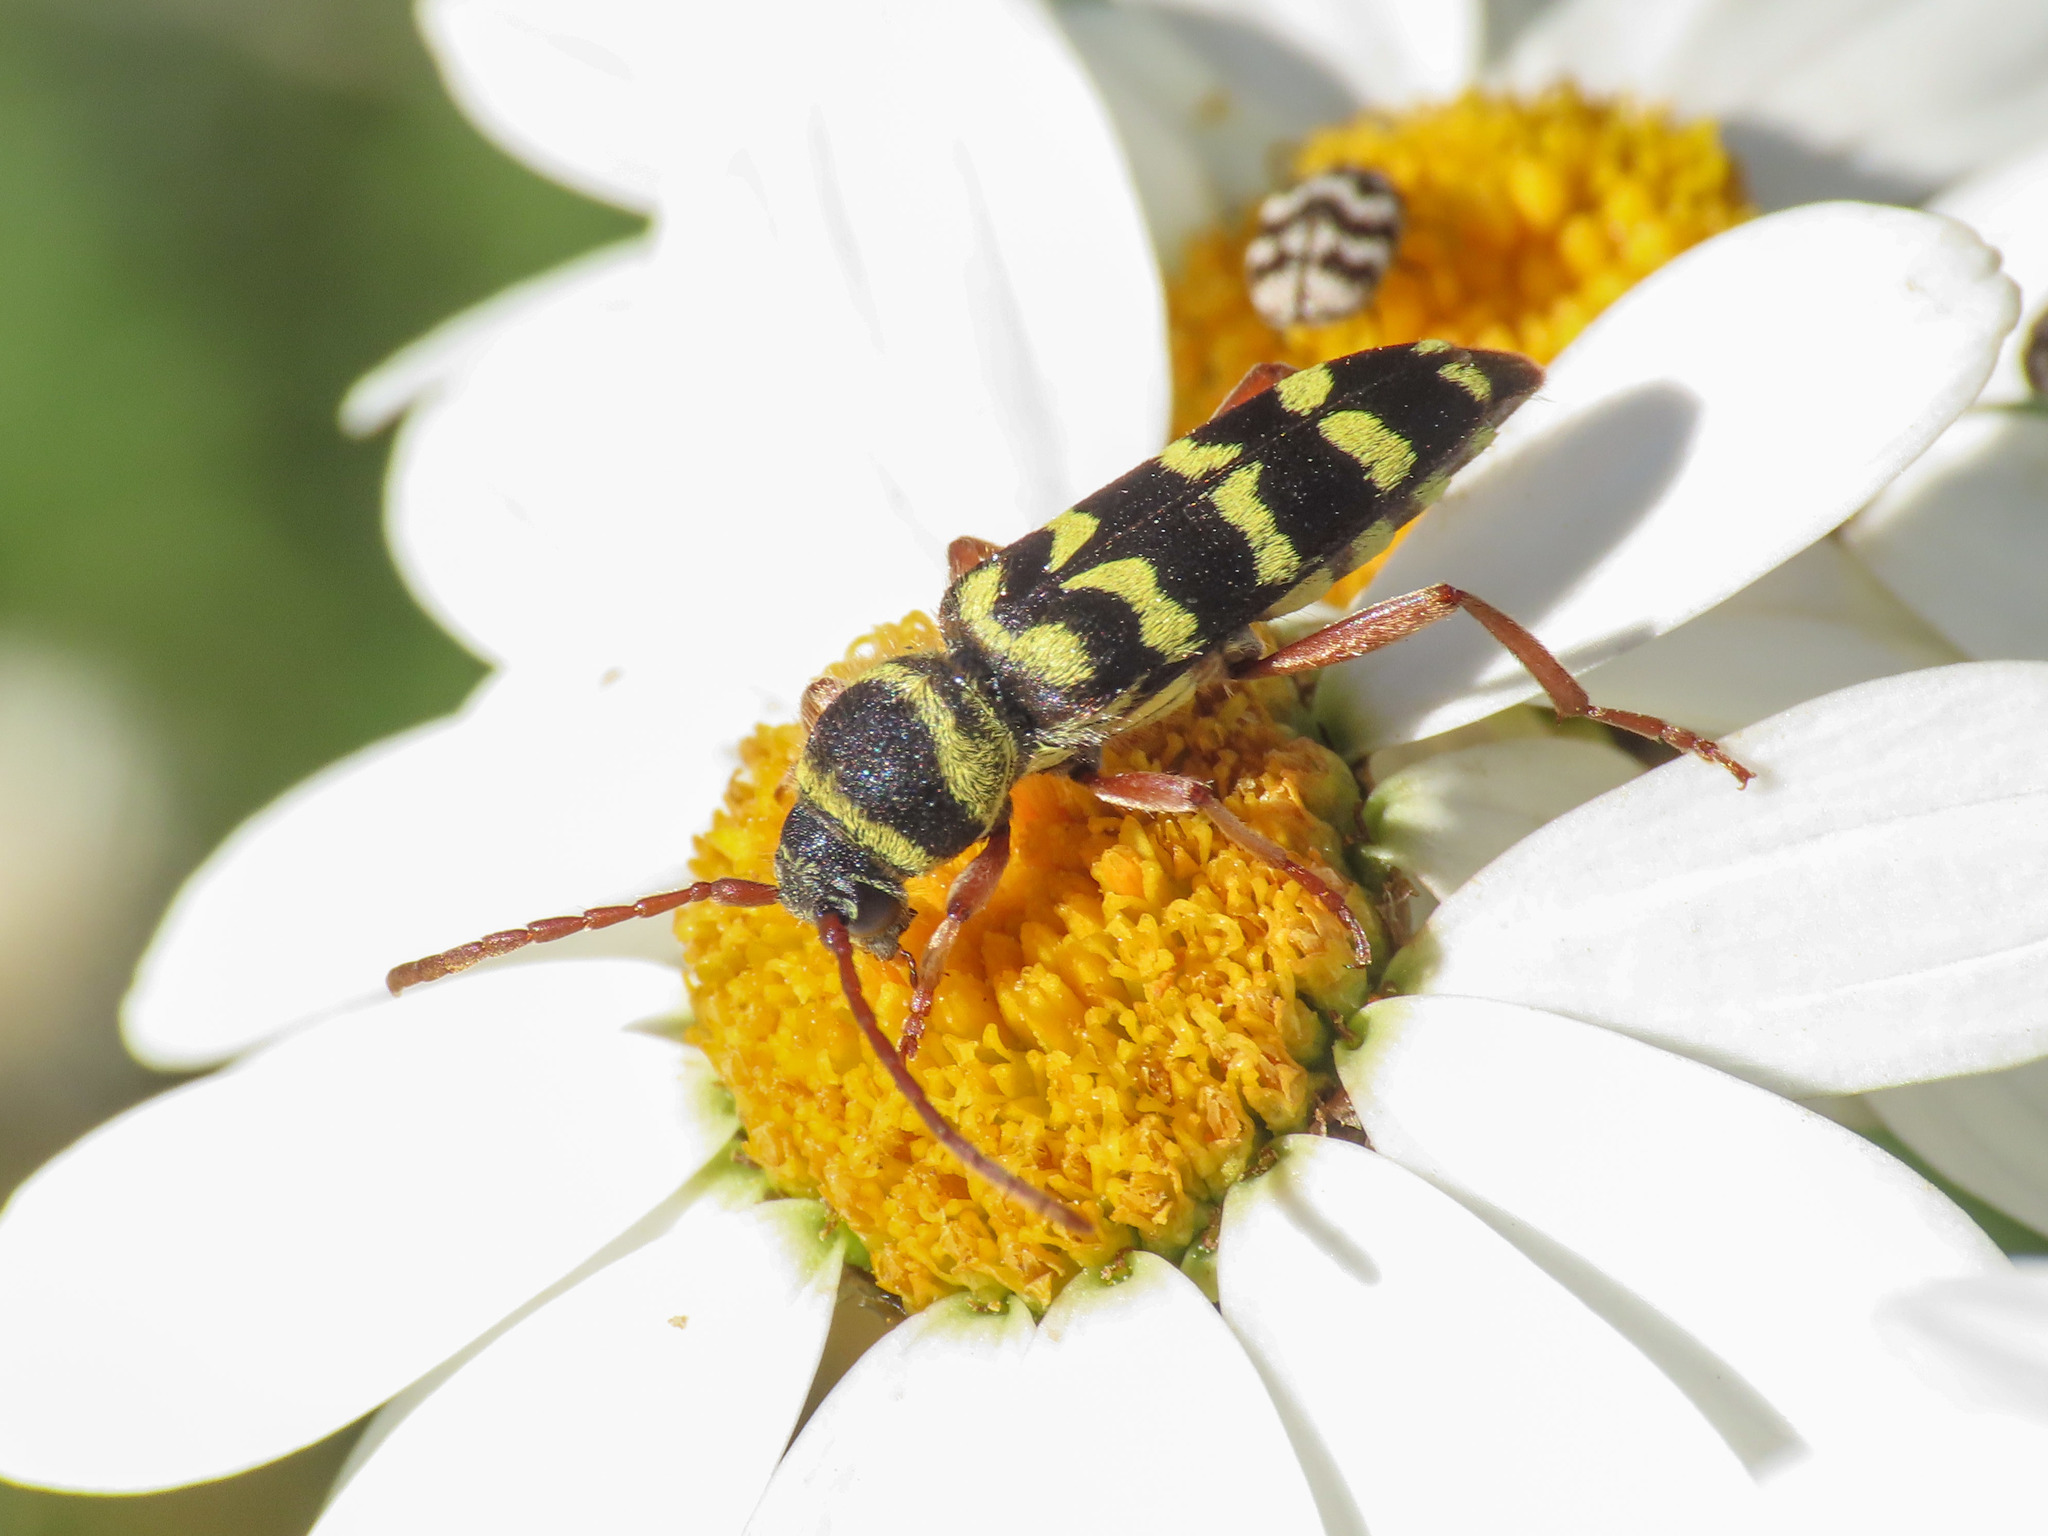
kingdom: Animalia
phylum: Arthropoda
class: Insecta
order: Coleoptera
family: Cerambycidae
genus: Plagionotus
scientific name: Plagionotus floralis
